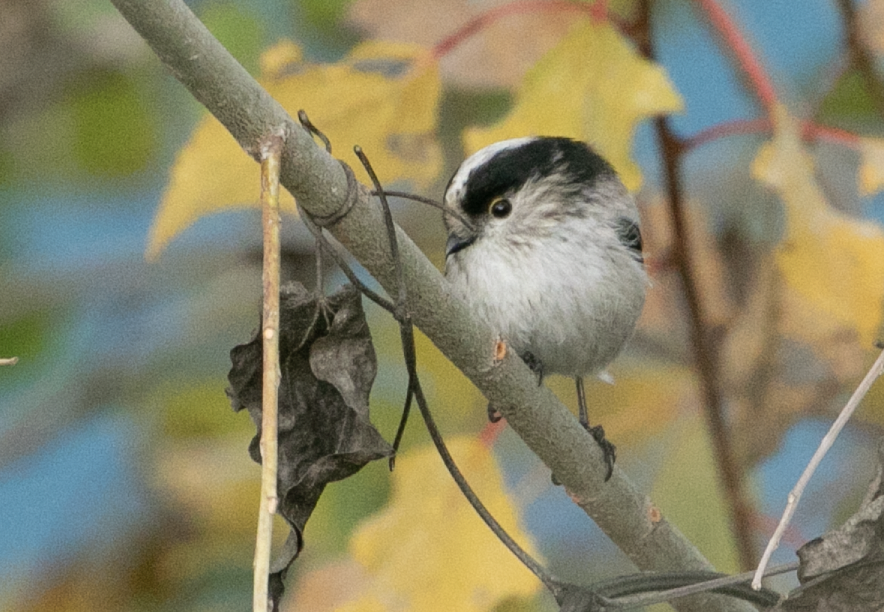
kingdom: Animalia
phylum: Chordata
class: Aves
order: Passeriformes
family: Aegithalidae
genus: Aegithalos
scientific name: Aegithalos caudatus
